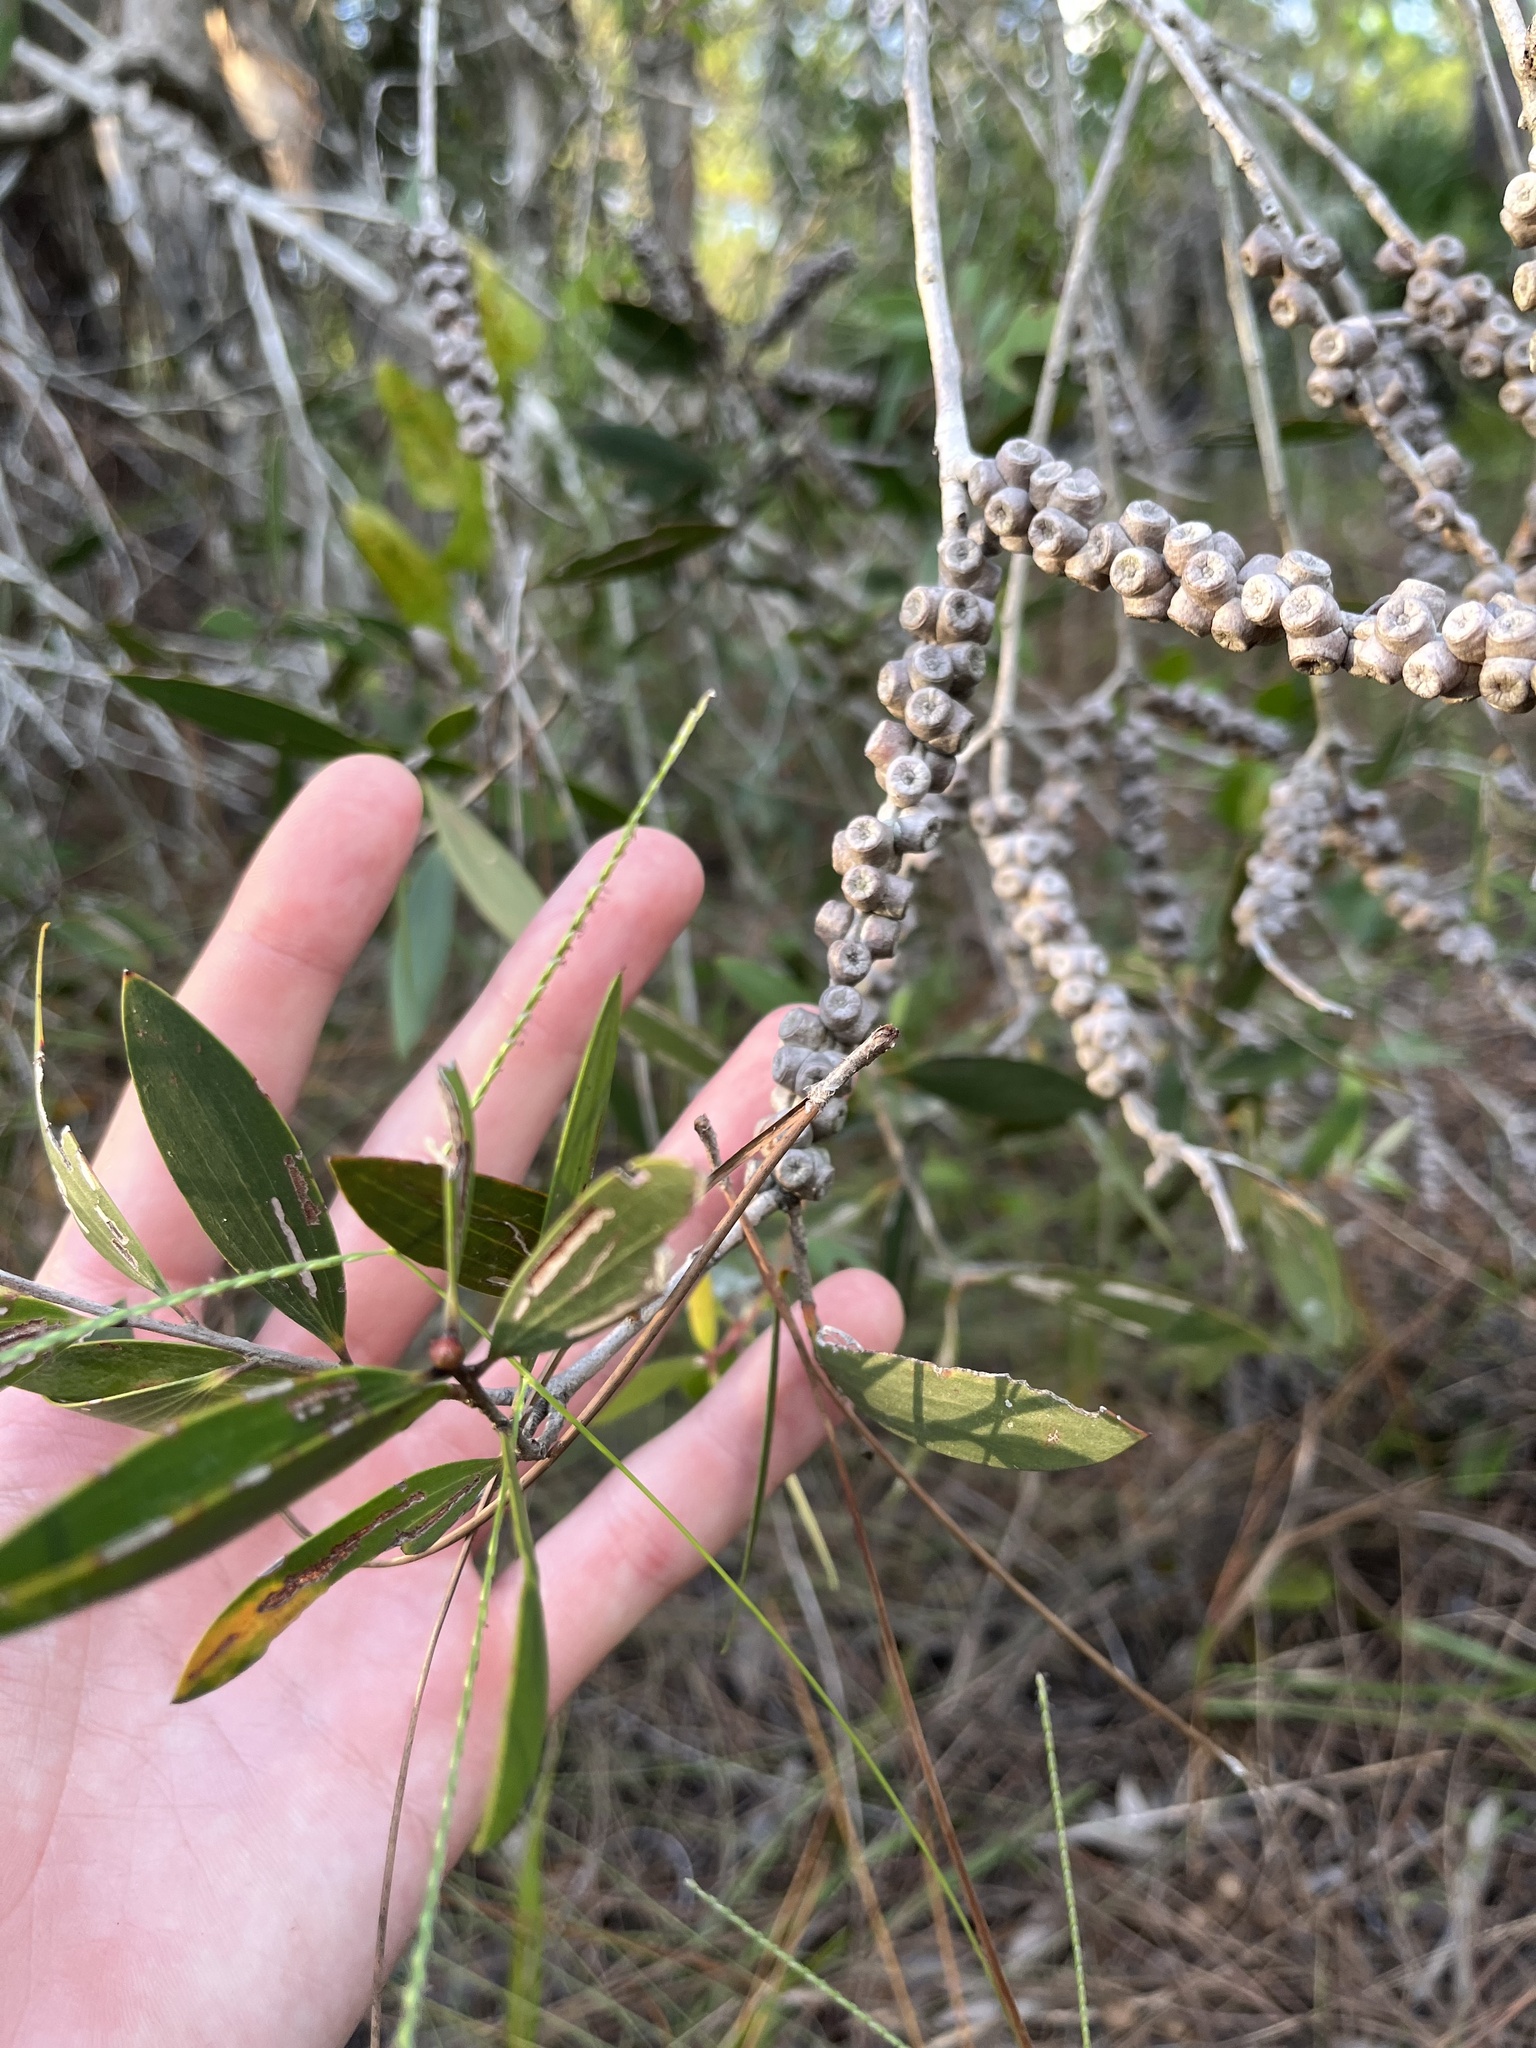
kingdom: Plantae
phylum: Tracheophyta
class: Magnoliopsida
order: Myrtales
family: Myrtaceae
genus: Melaleuca
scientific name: Melaleuca quinquenervia
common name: Punktree
